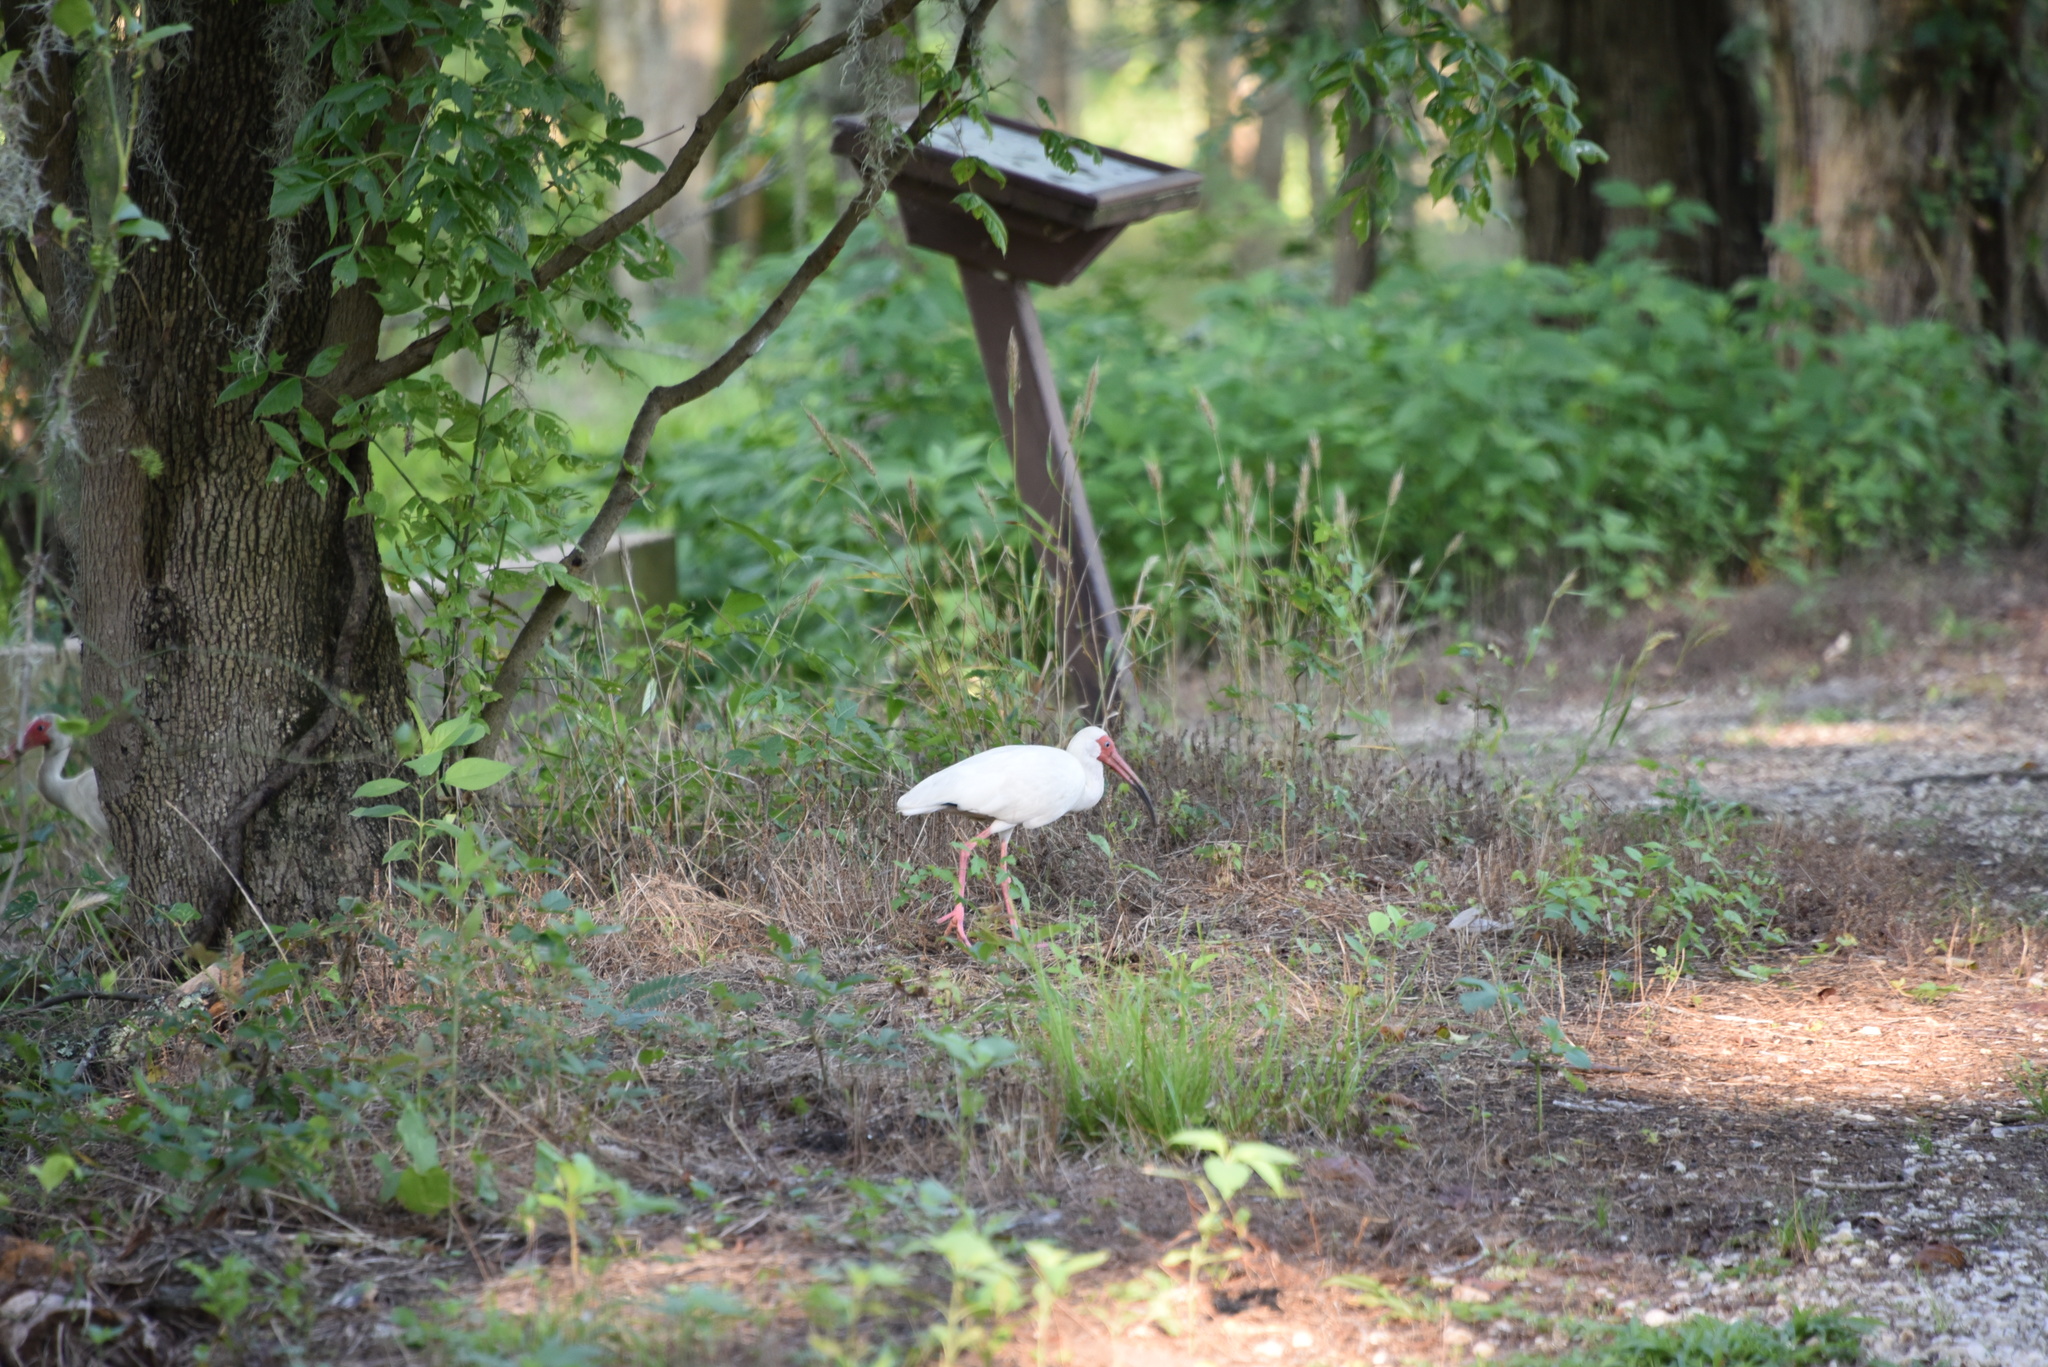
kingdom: Animalia
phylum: Chordata
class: Aves
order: Pelecaniformes
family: Threskiornithidae
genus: Eudocimus
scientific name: Eudocimus albus
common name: White ibis
